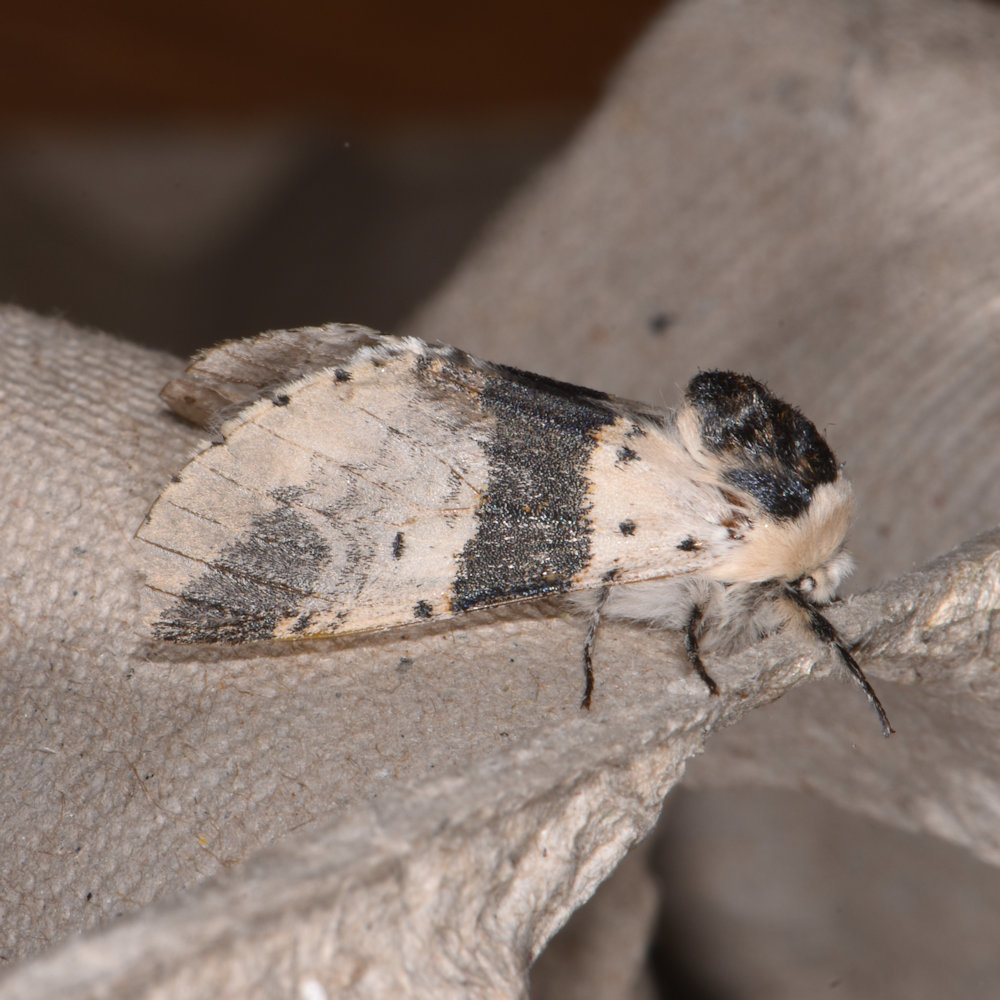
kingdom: Animalia
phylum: Arthropoda
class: Insecta
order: Lepidoptera
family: Notodontidae
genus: Furcula
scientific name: Furcula modesta
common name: Modest furcula moth
